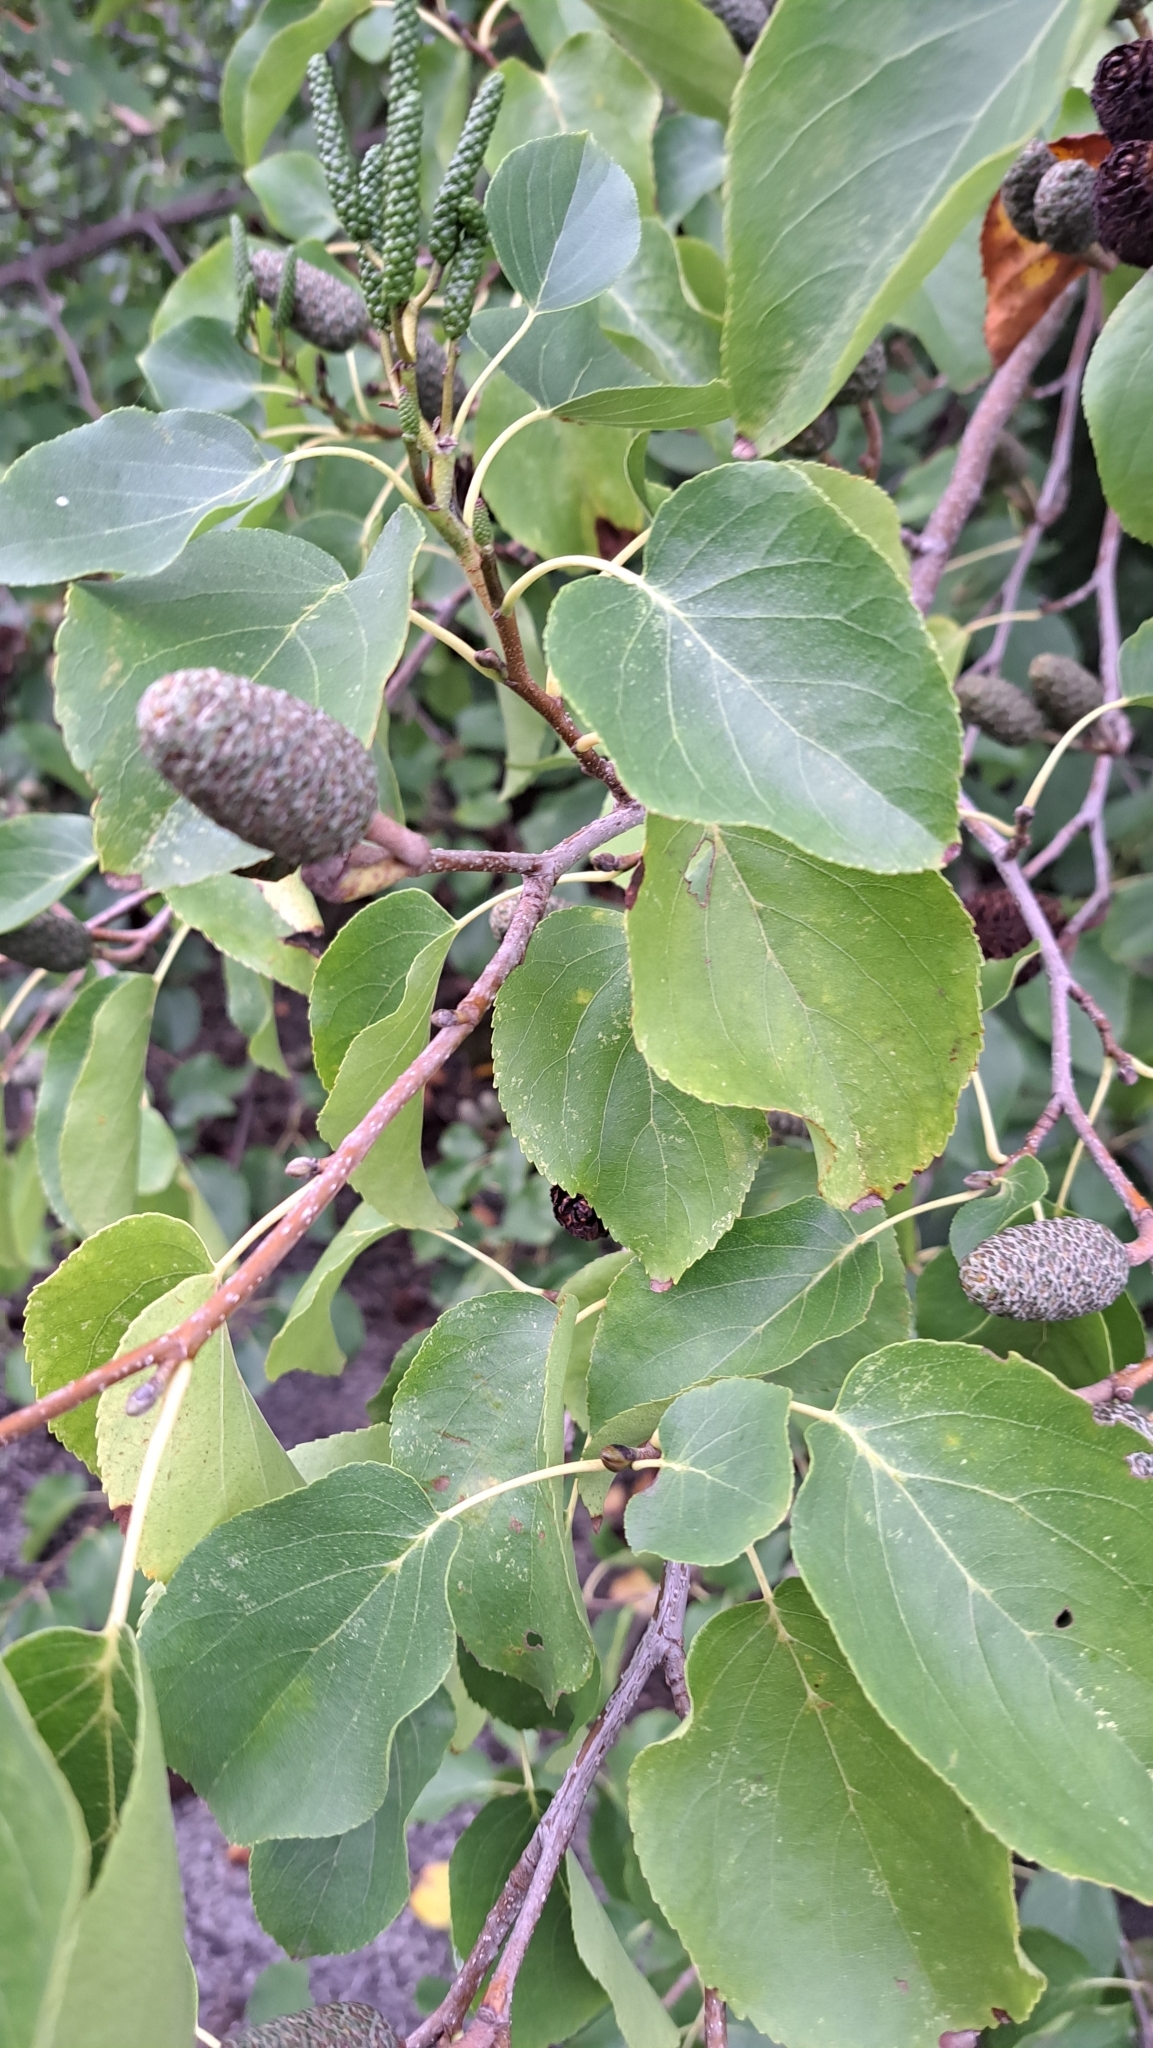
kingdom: Plantae
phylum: Tracheophyta
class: Magnoliopsida
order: Fagales
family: Betulaceae
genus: Alnus
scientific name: Alnus incana
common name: Grey alder
